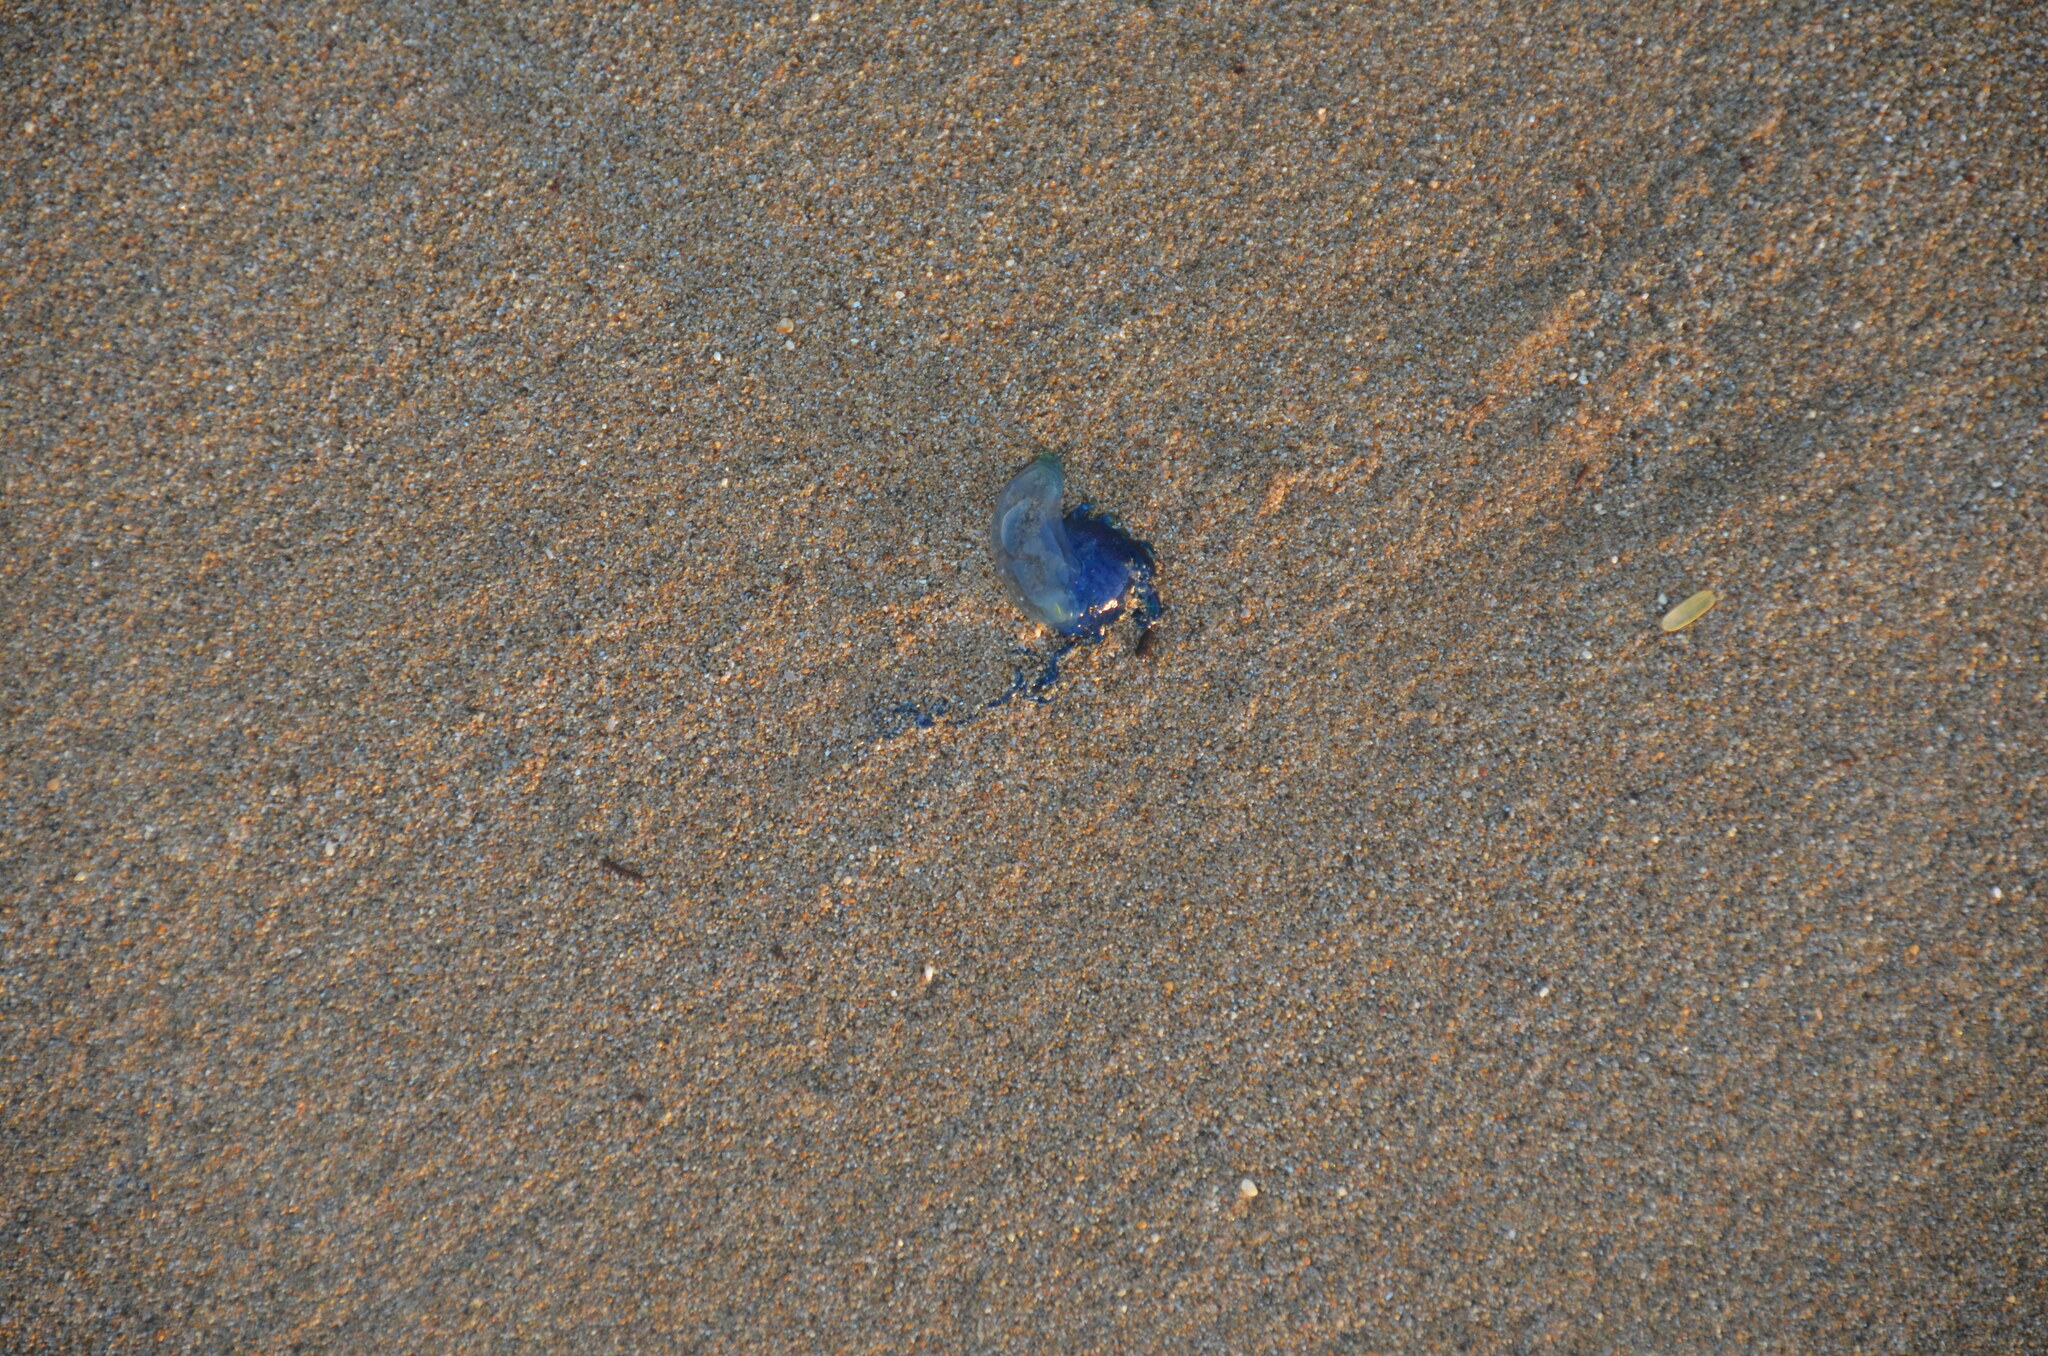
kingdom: Animalia
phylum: Cnidaria
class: Hydrozoa
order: Siphonophorae
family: Physaliidae
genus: Physalia
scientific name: Physalia physalis
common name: Portuguese man-of-war
